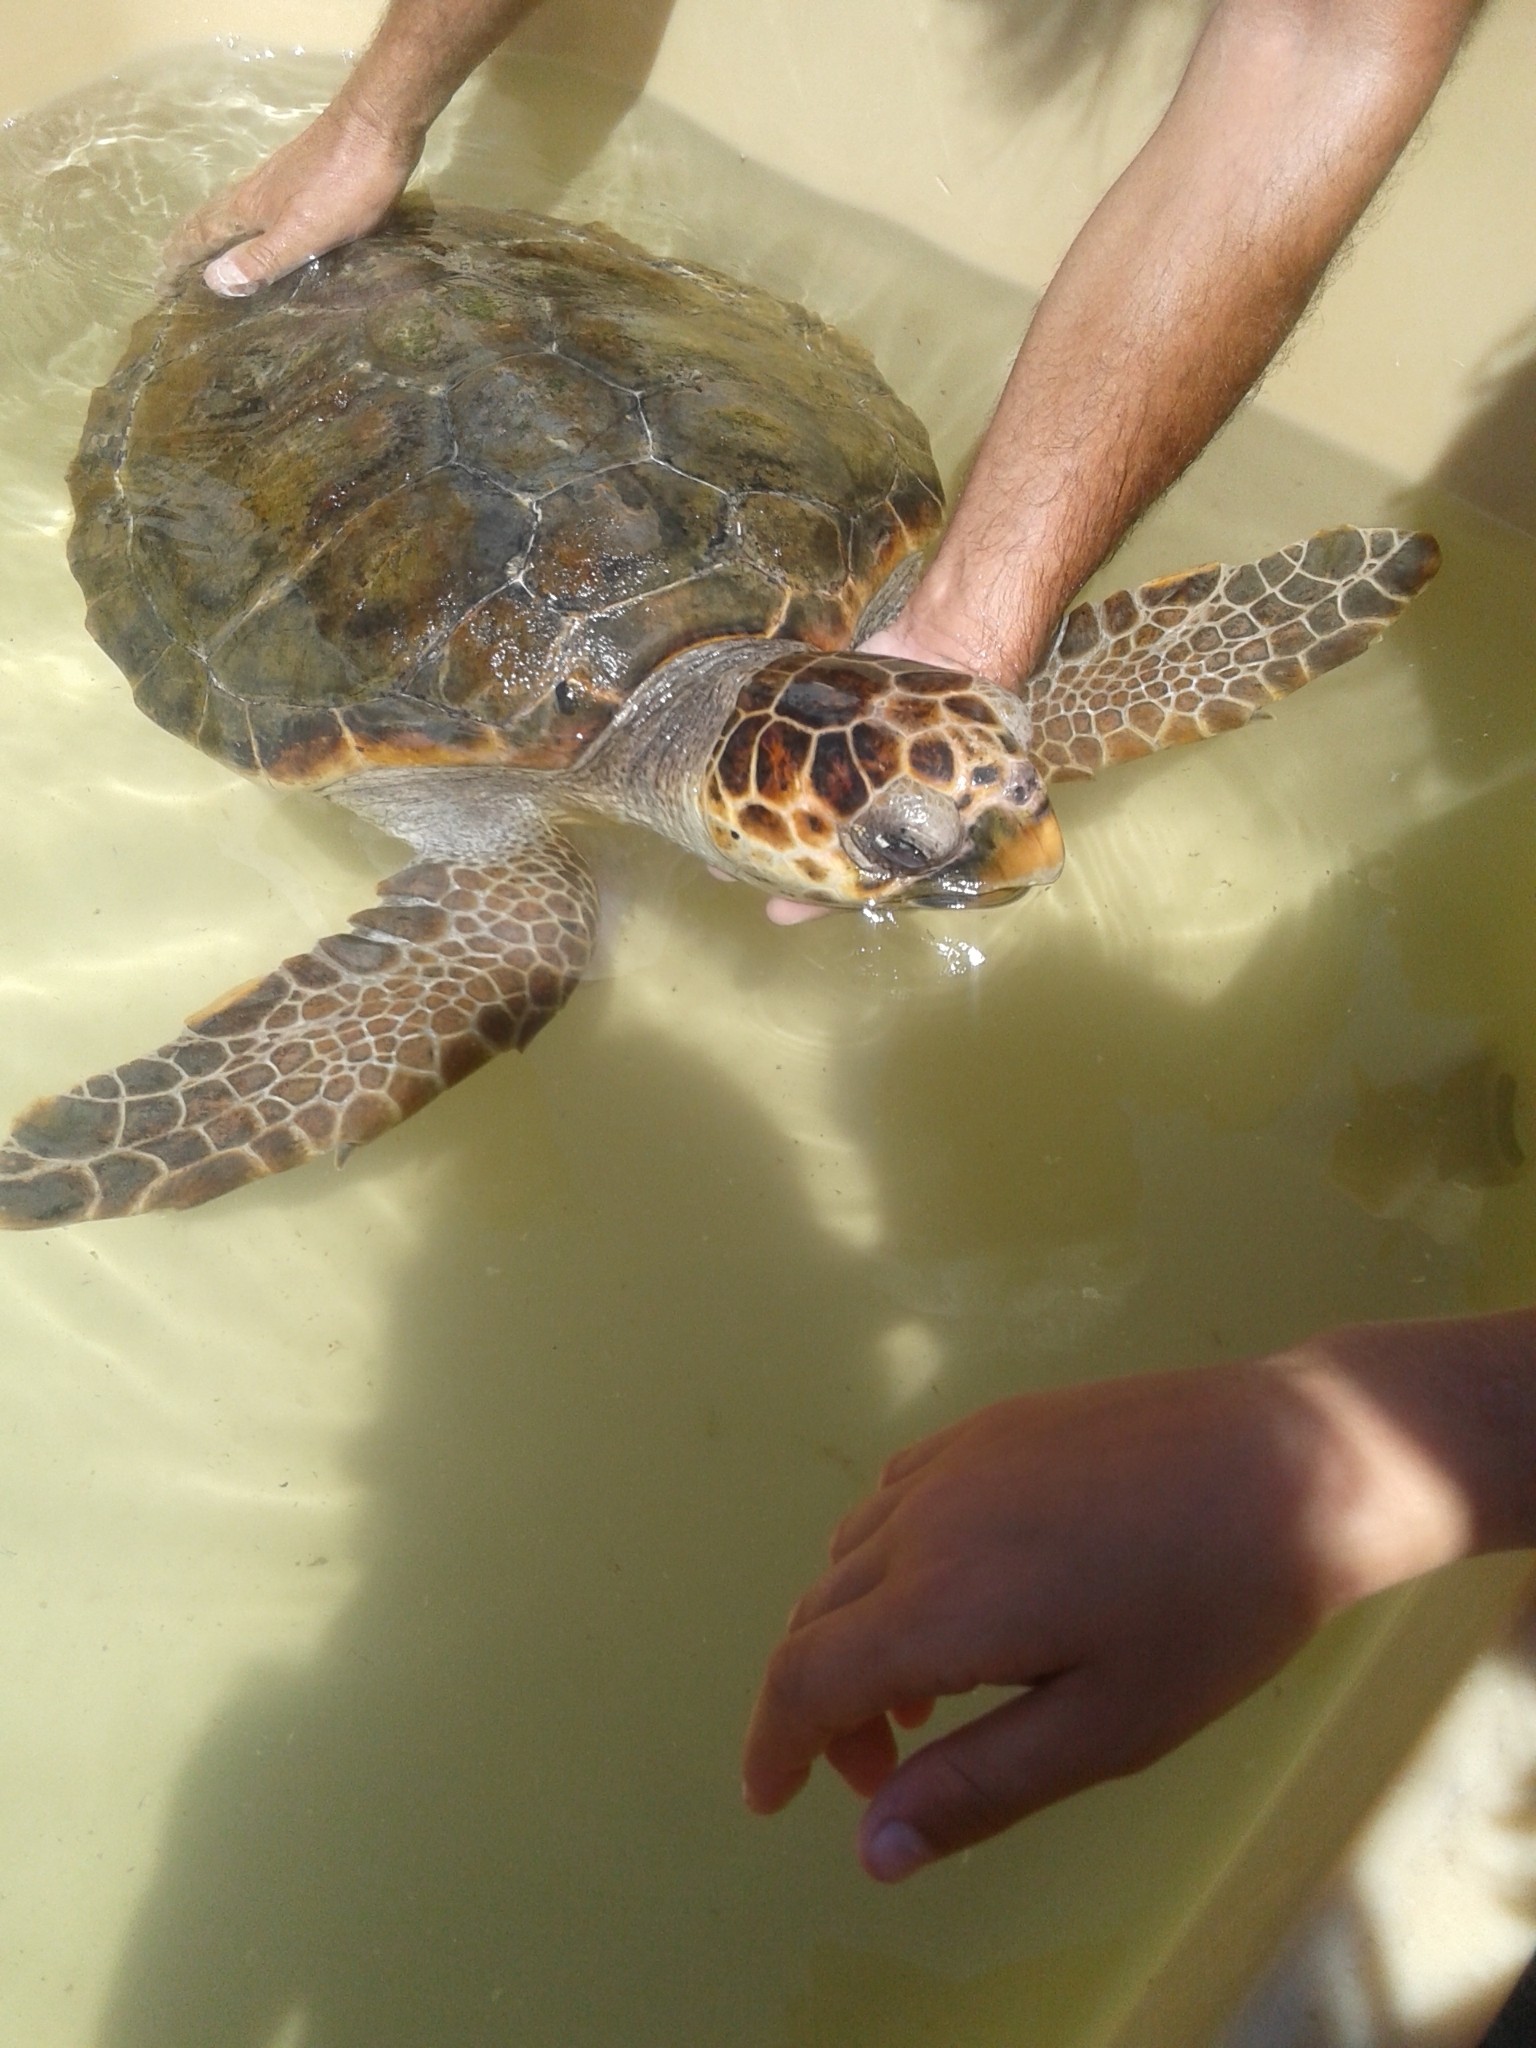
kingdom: Animalia
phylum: Chordata
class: Testudines
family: Cheloniidae
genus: Caretta
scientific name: Caretta caretta
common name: Loggerhead sea turtle
